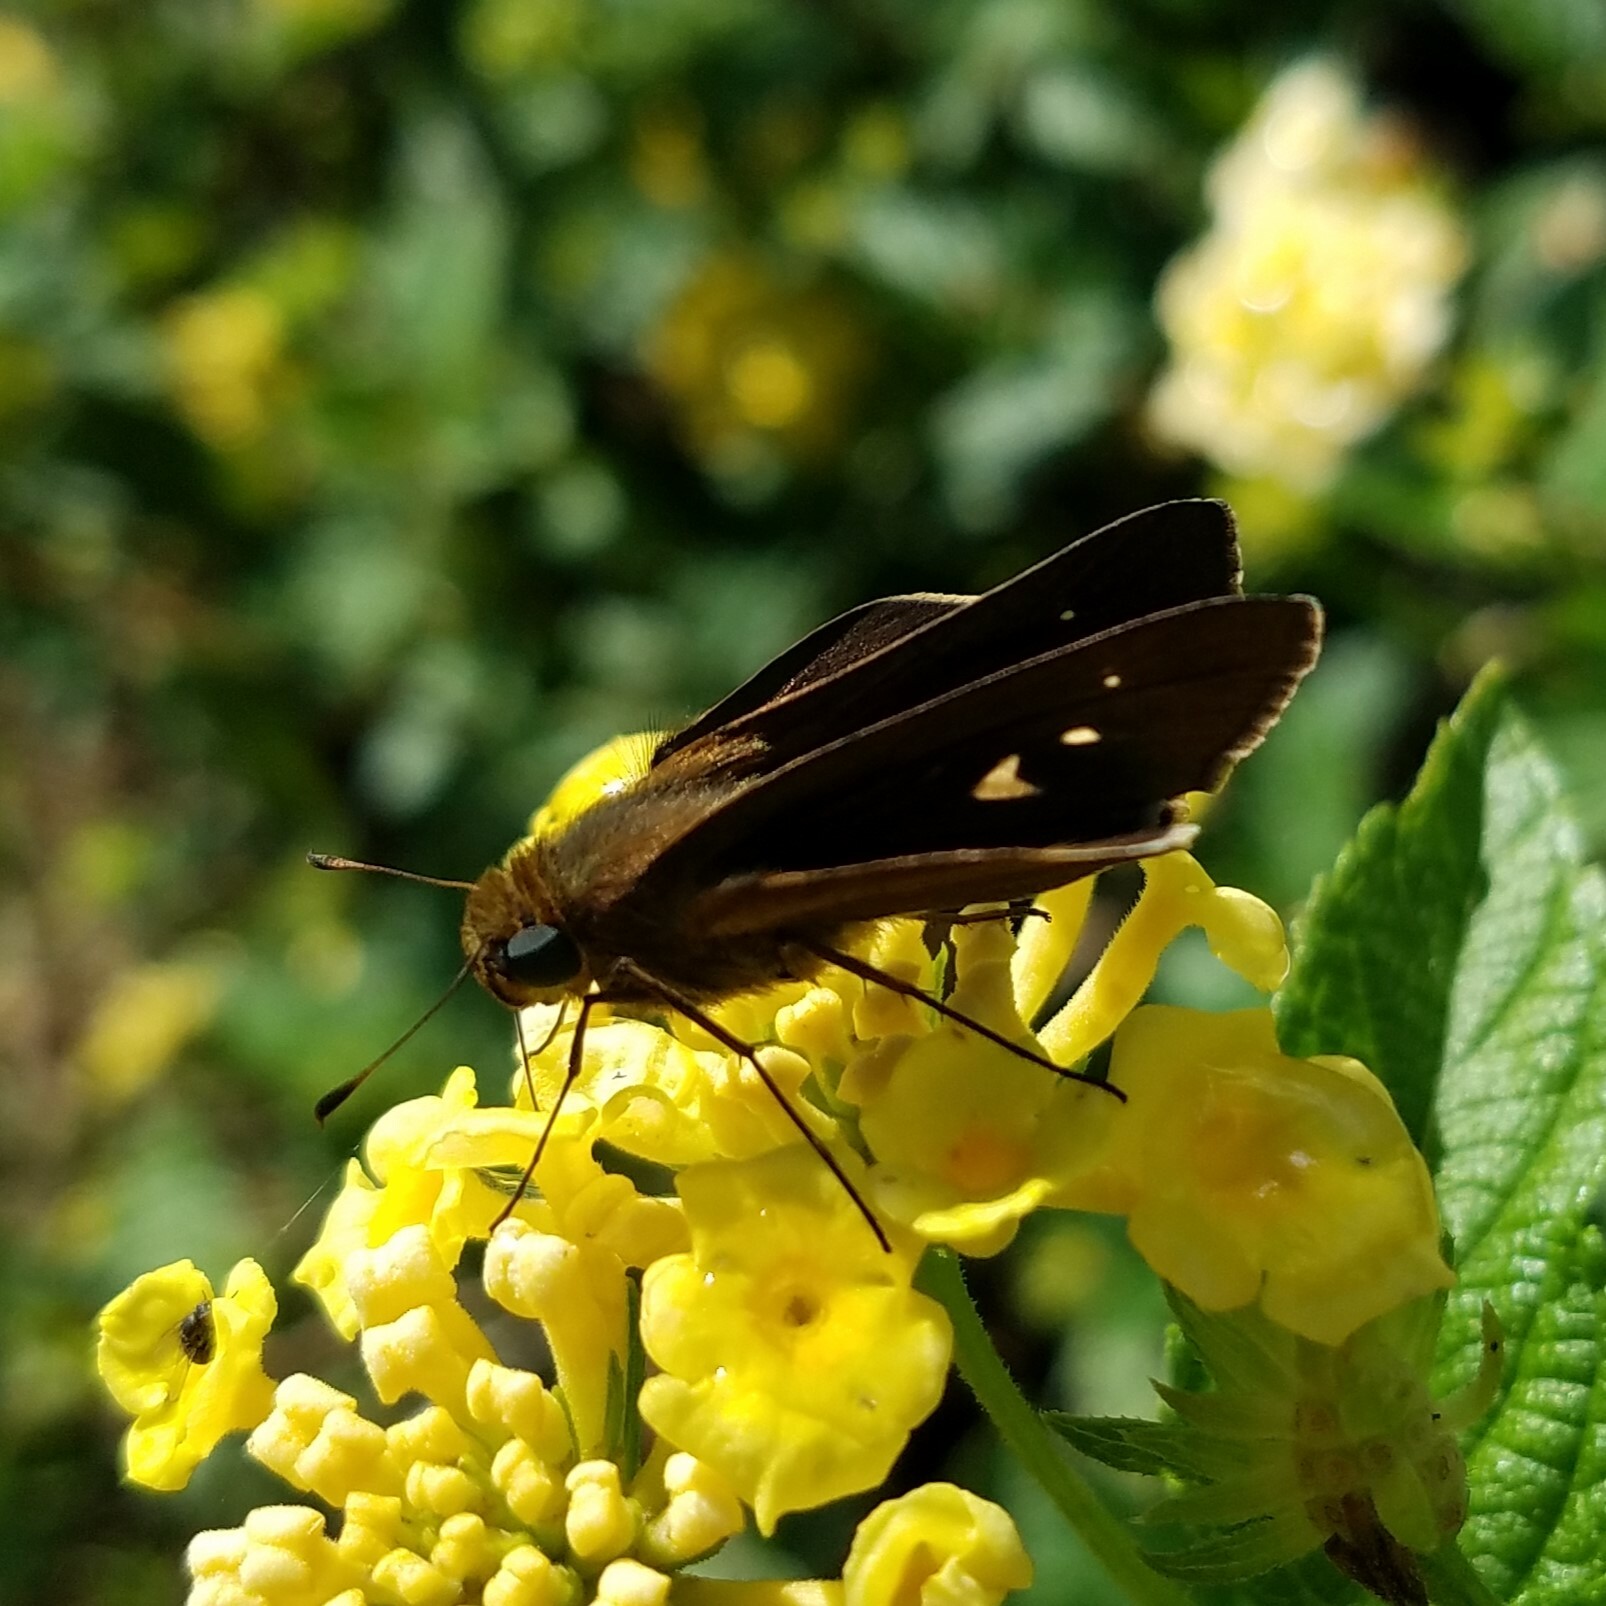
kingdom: Animalia
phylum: Arthropoda
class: Insecta
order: Lepidoptera
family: Hesperiidae
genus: Panoquina
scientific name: Panoquina ocola
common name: Ocola skipper
